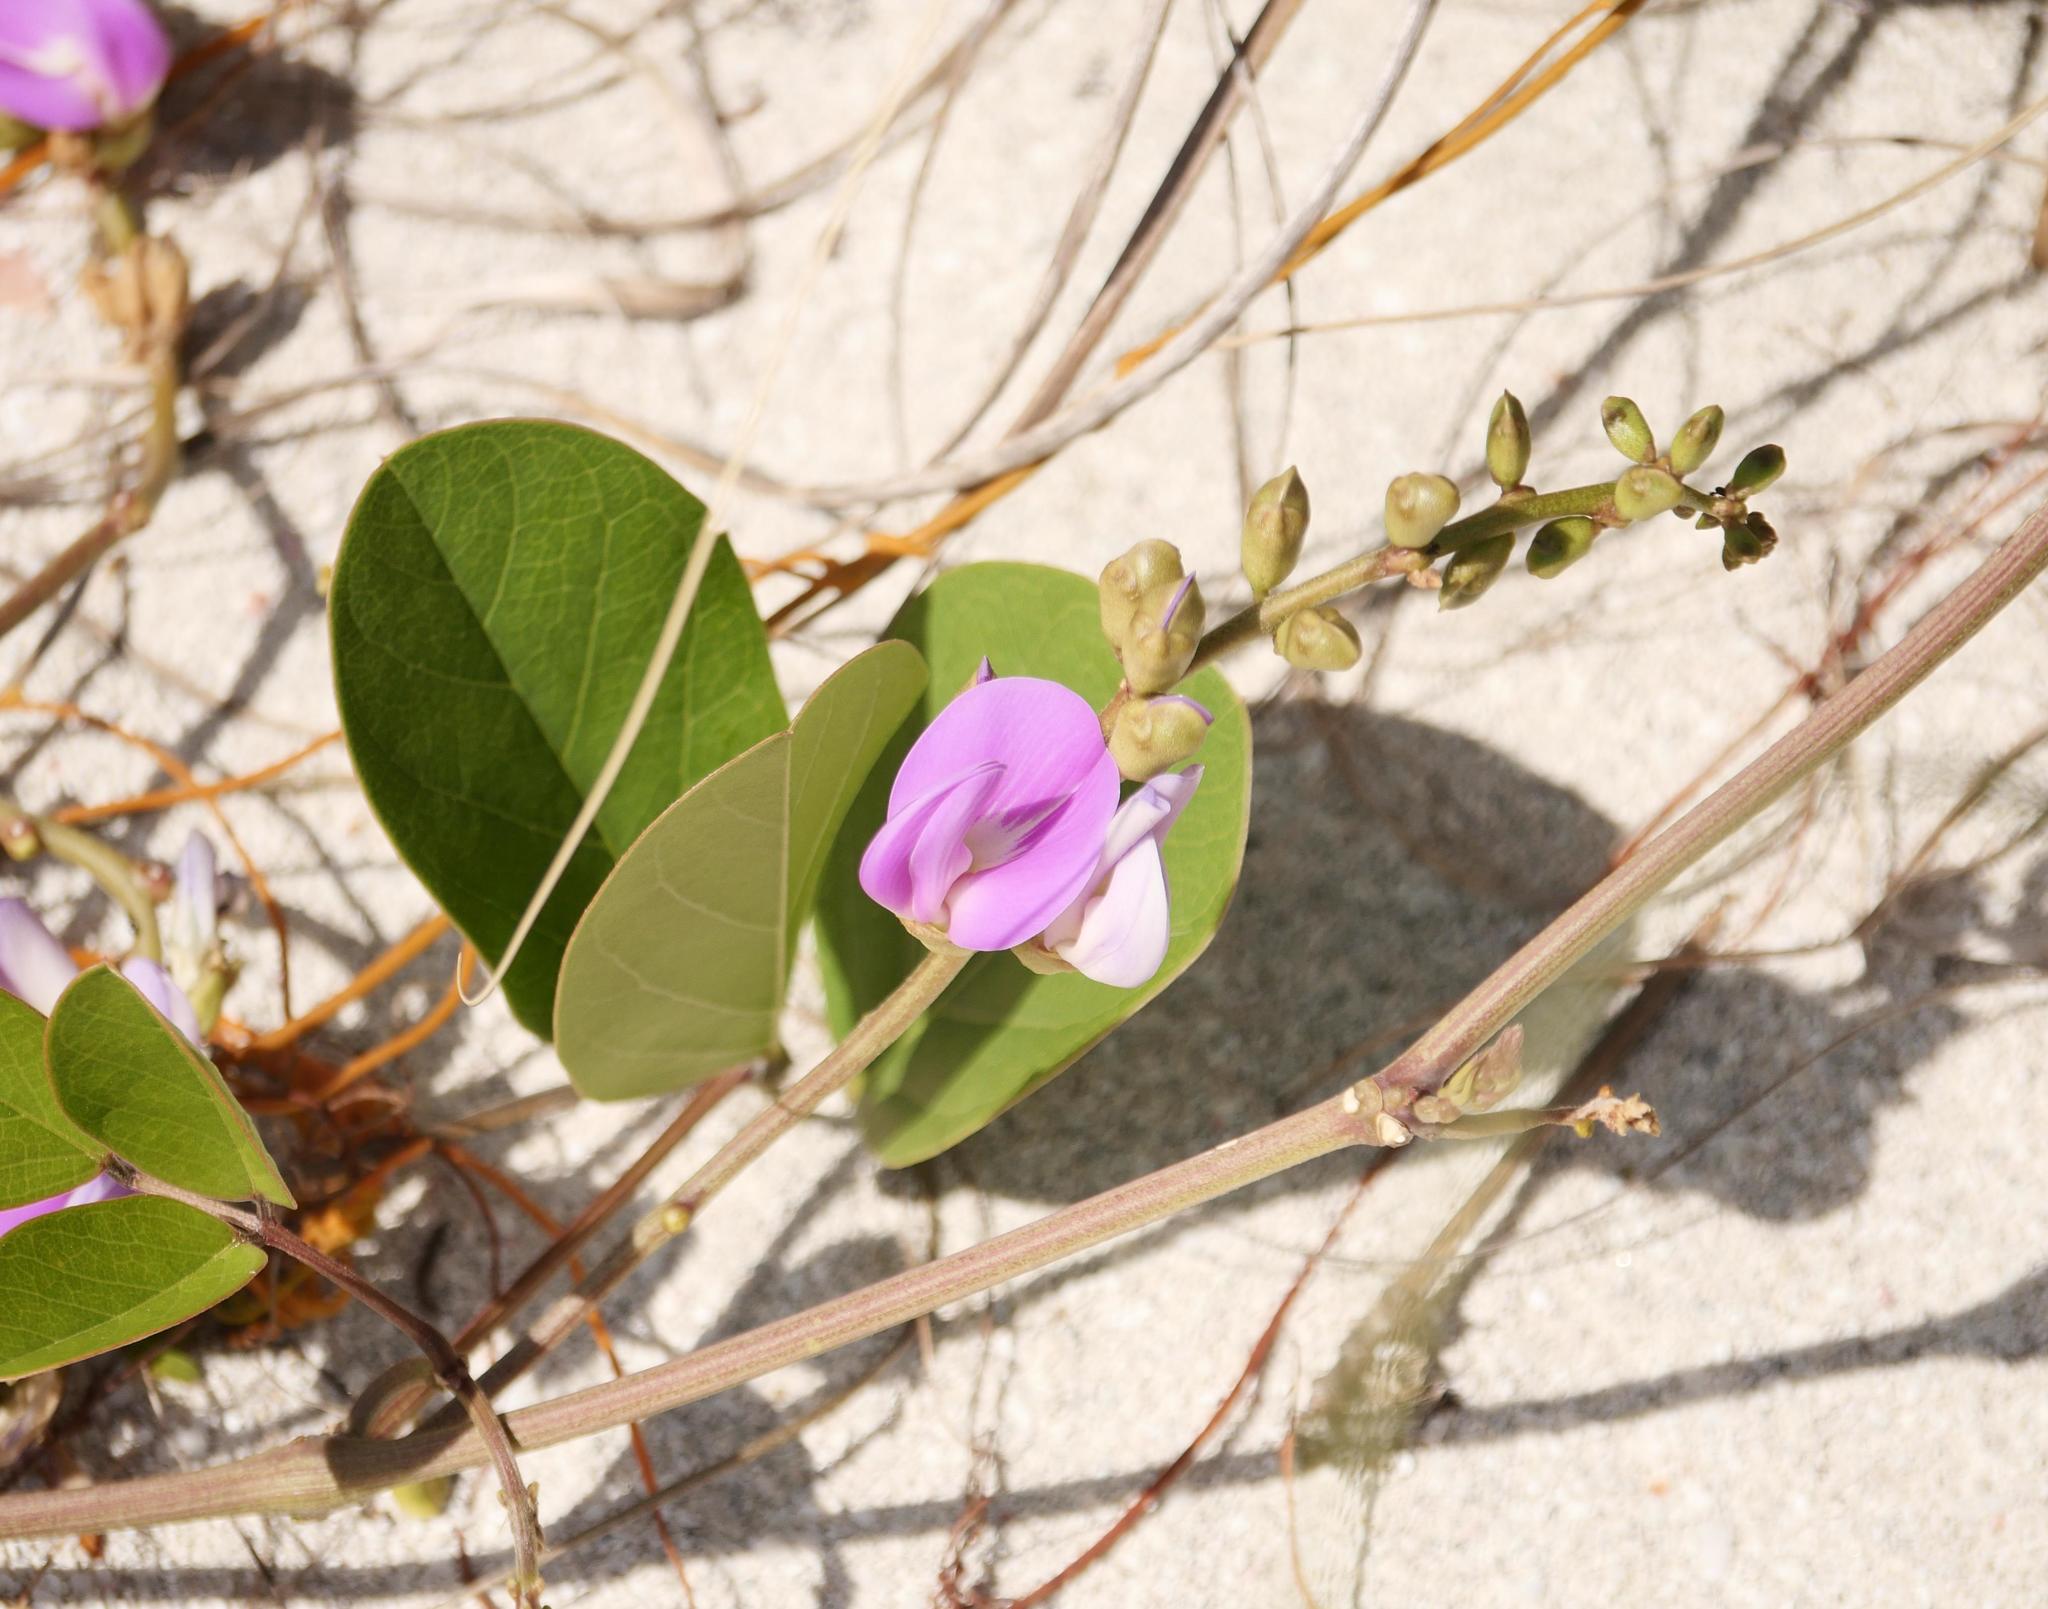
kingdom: Plantae
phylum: Tracheophyta
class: Magnoliopsida
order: Fabales
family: Fabaceae
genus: Canavalia
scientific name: Canavalia rosea
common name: Beach-bean
